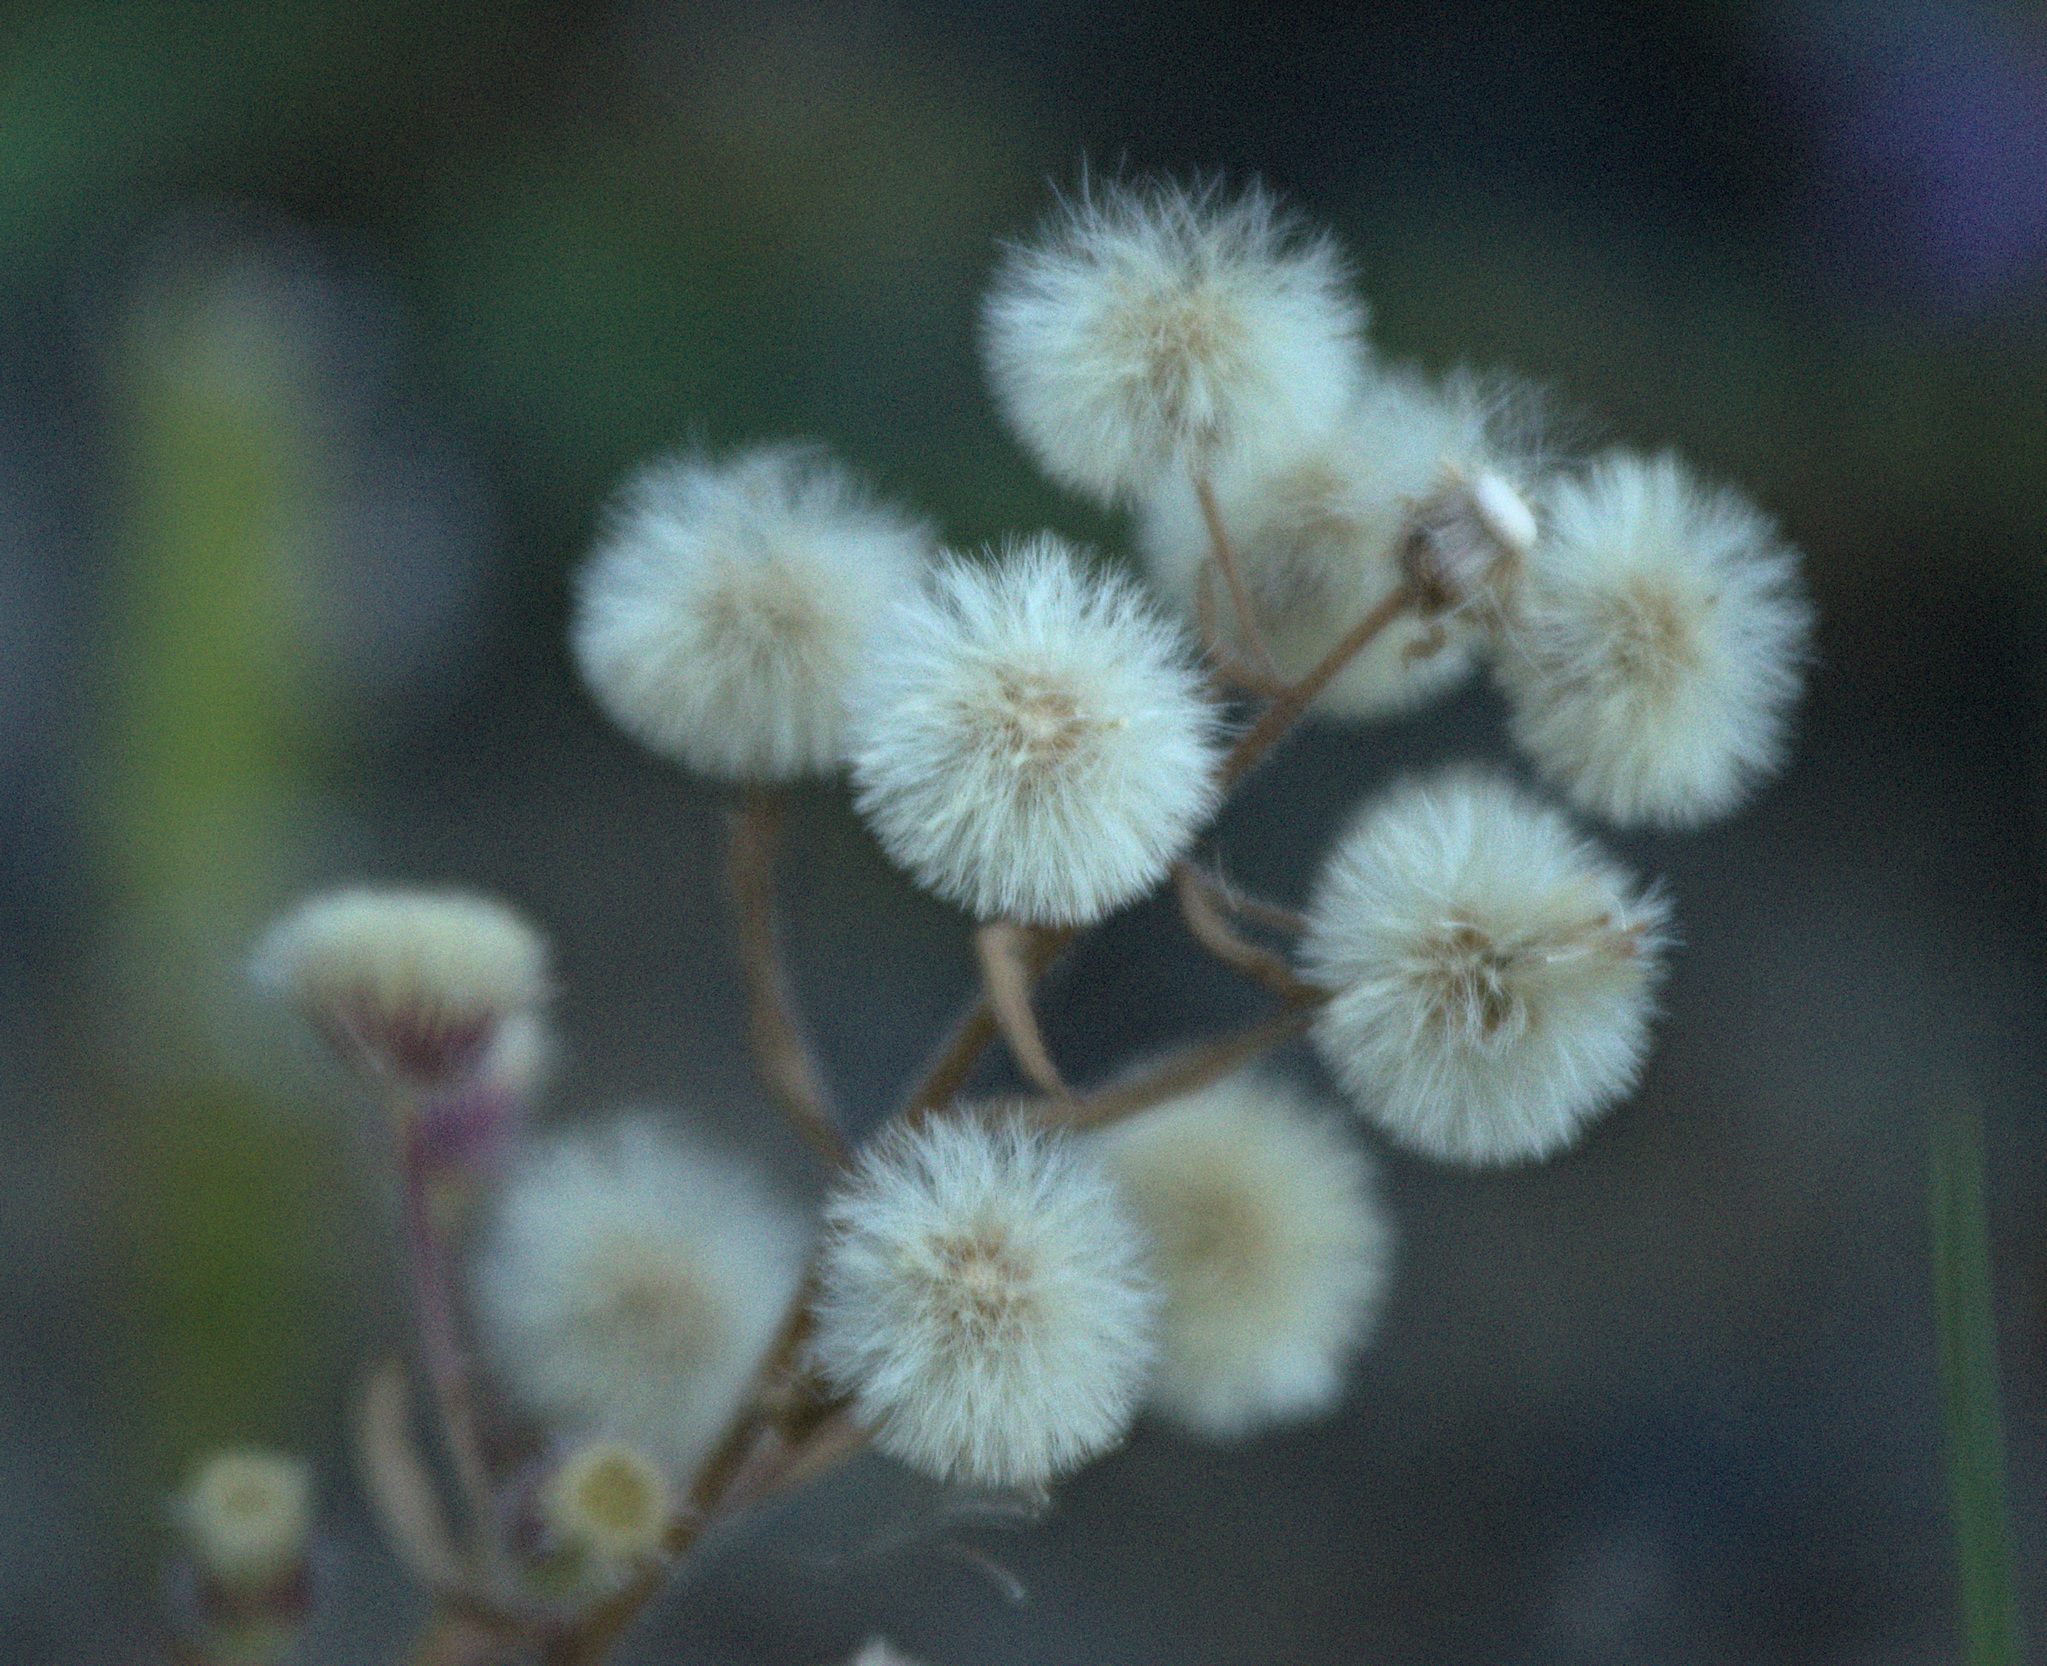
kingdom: Plantae
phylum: Tracheophyta
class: Magnoliopsida
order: Asterales
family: Asteraceae
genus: Erigeron
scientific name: Erigeron acris
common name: Blue fleabane
